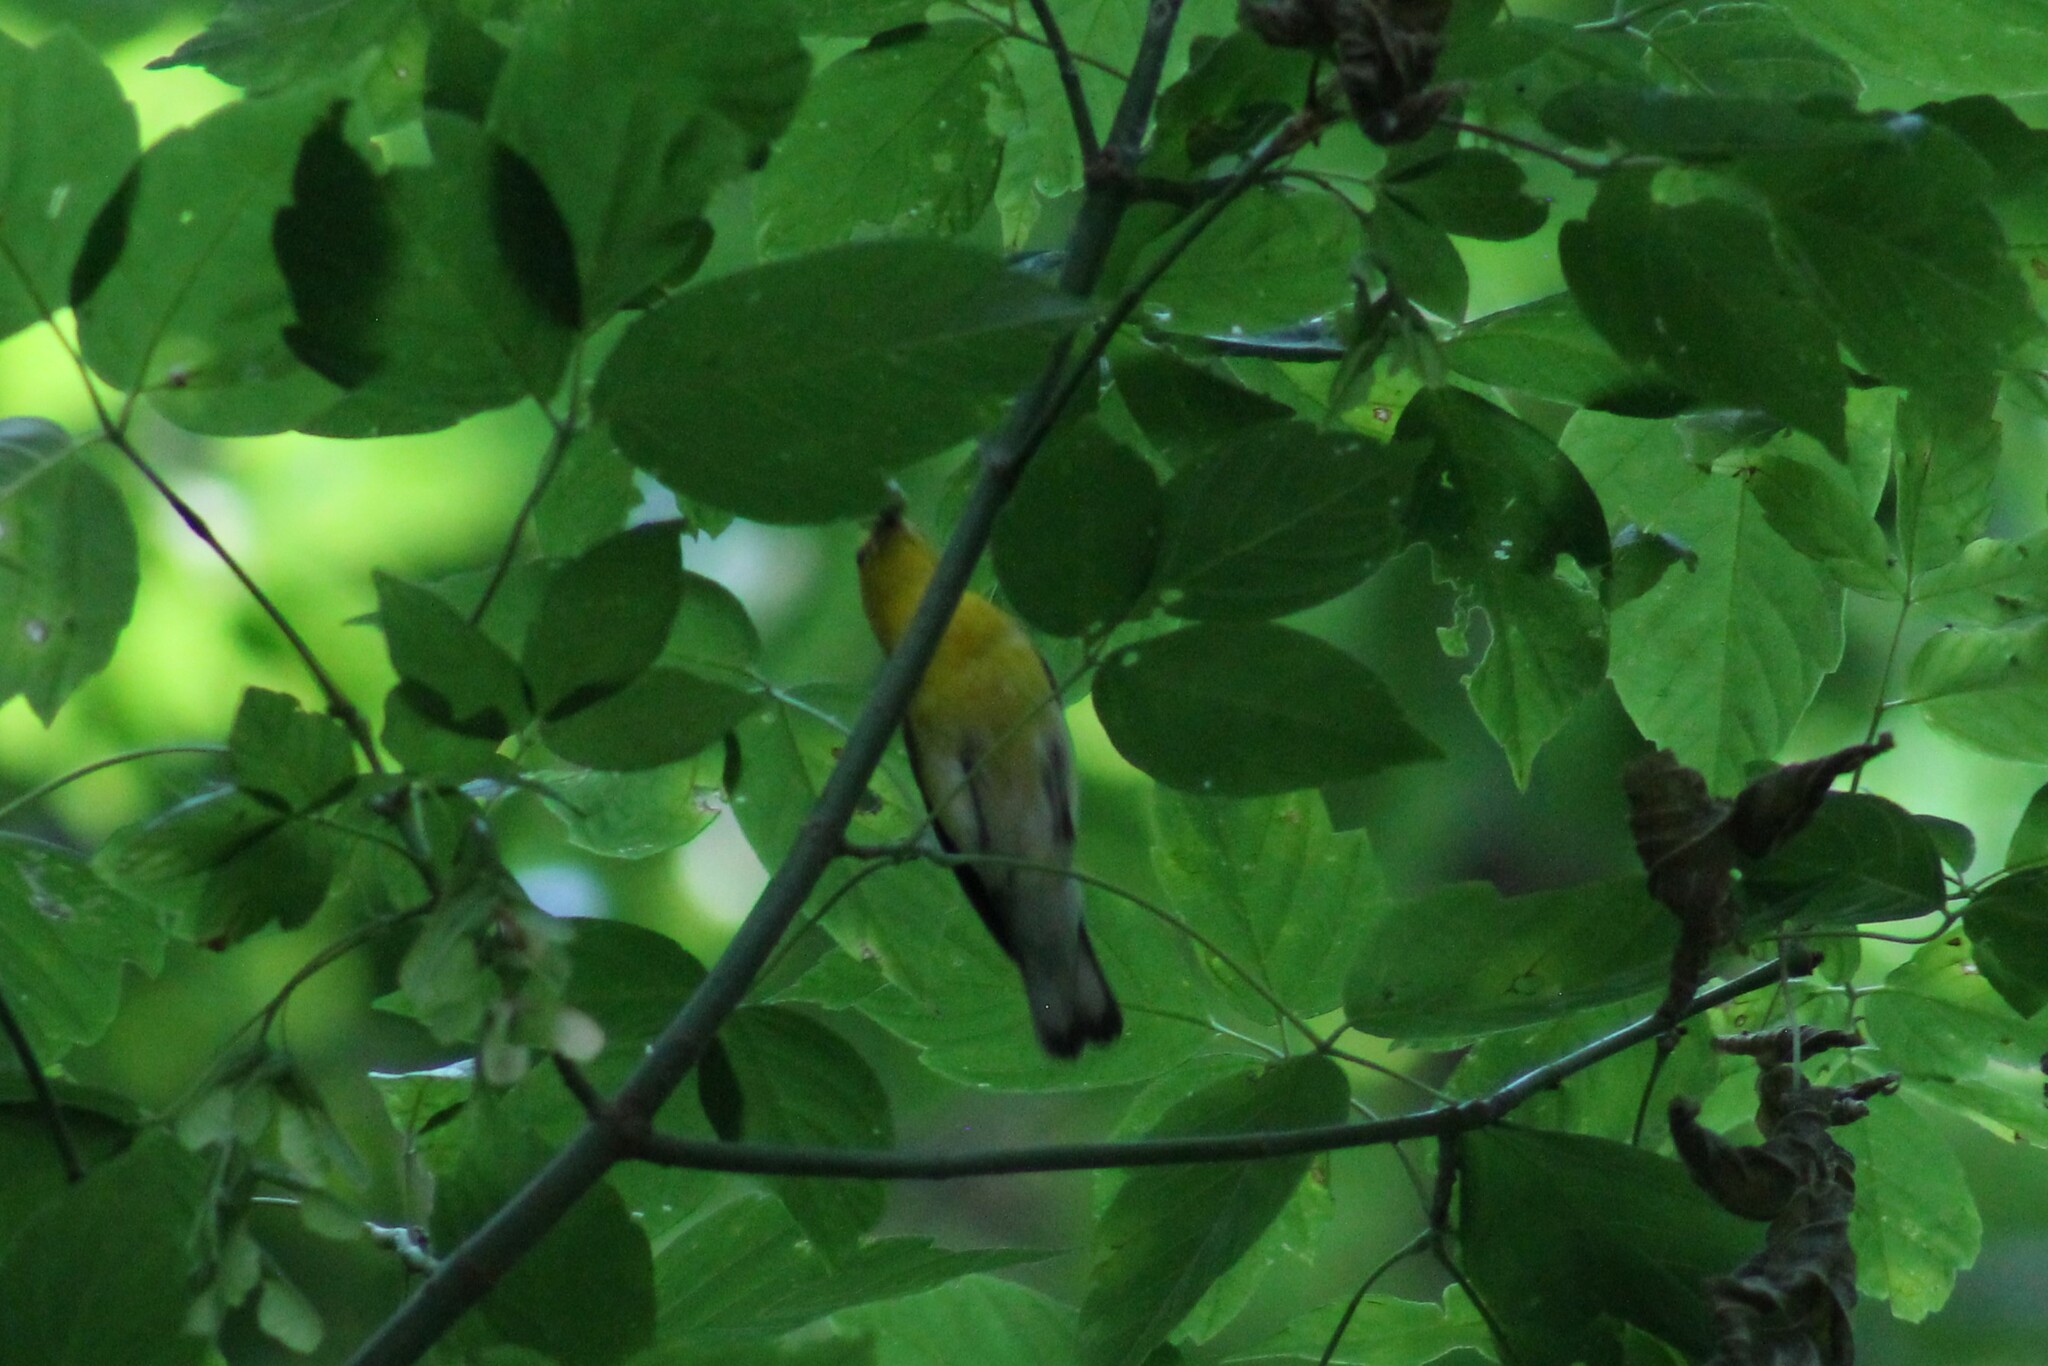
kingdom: Animalia
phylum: Chordata
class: Aves
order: Passeriformes
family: Parulidae
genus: Protonotaria
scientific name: Protonotaria citrea
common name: Prothonotary warbler
